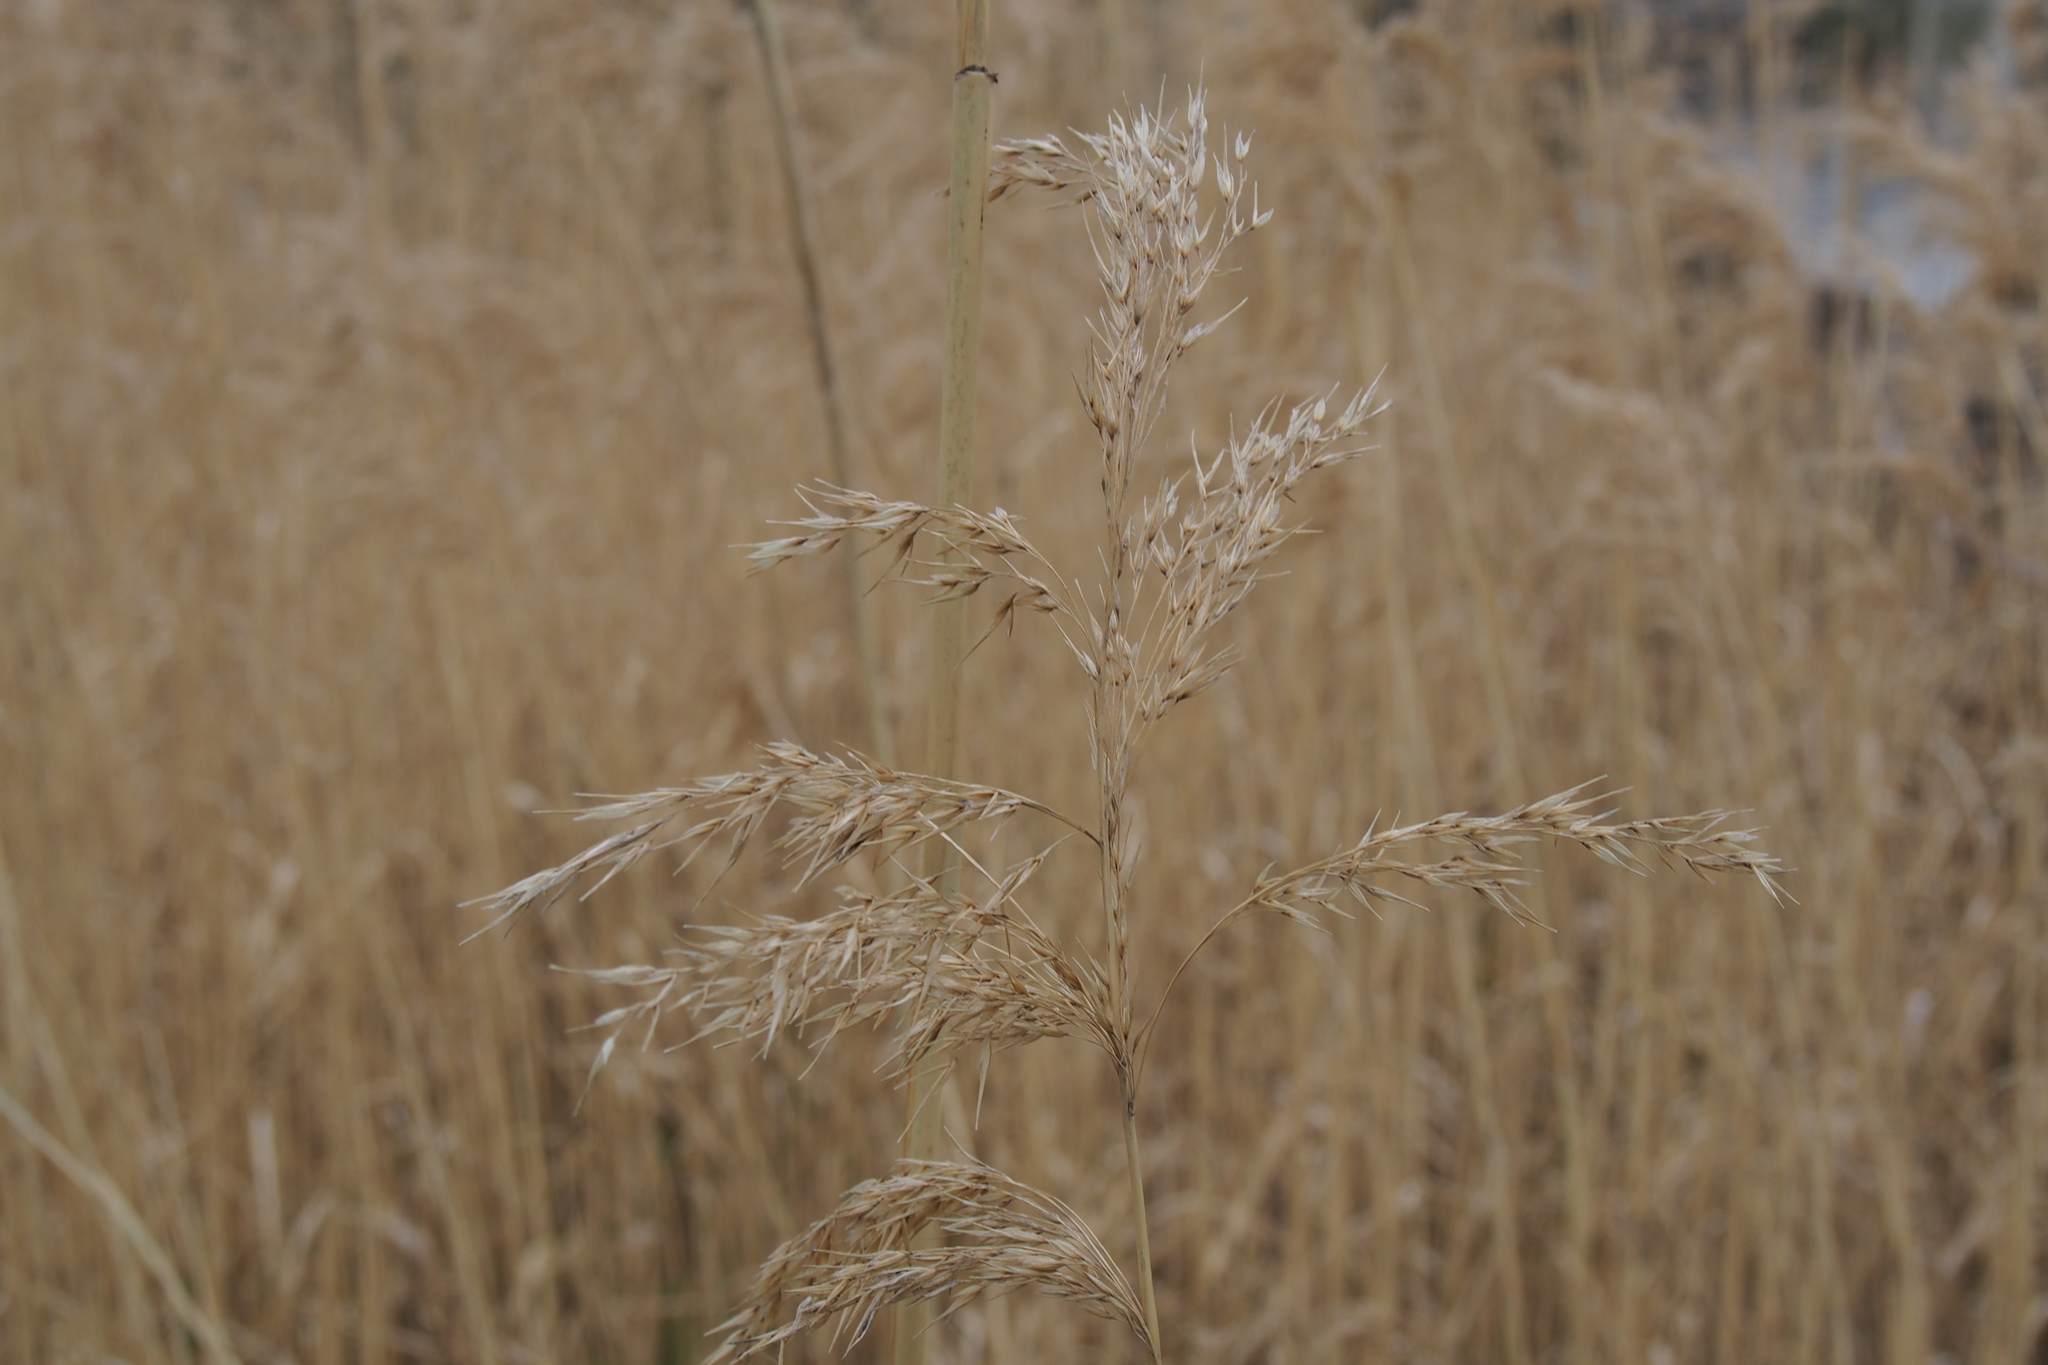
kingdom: Plantae
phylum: Tracheophyta
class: Liliopsida
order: Poales
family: Poaceae
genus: Phragmites
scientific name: Phragmites australis
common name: Common reed
